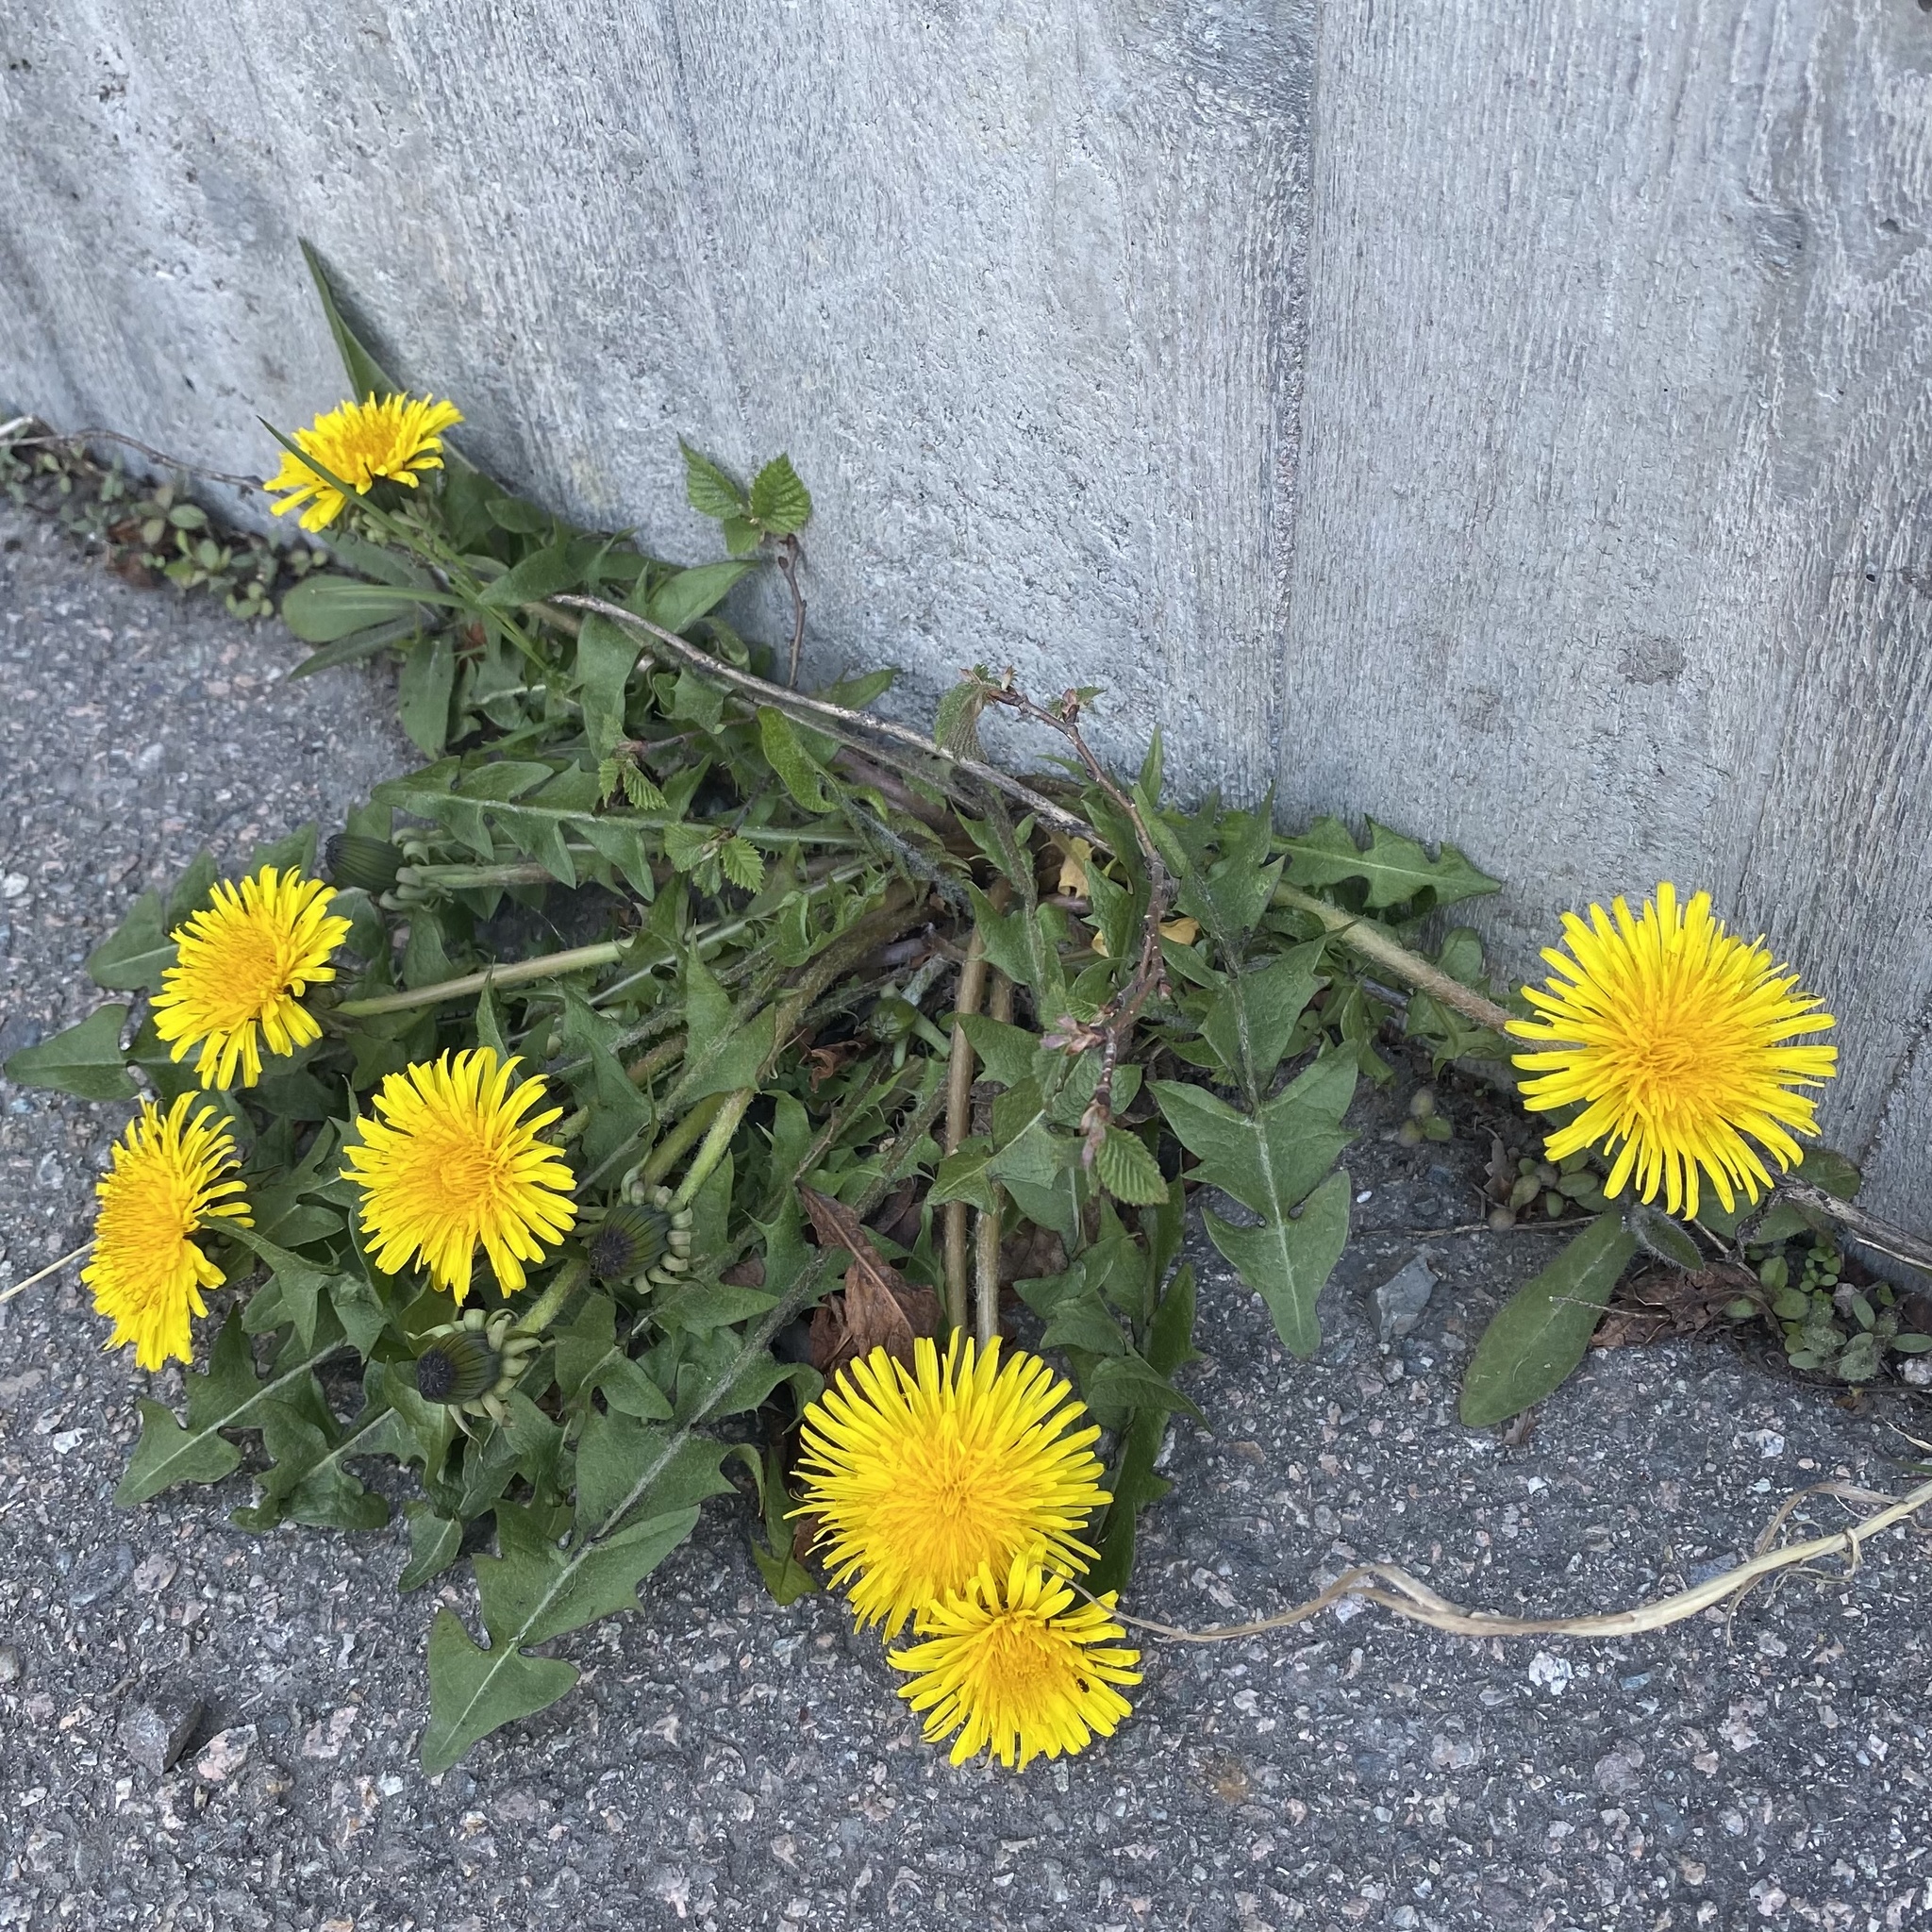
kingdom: Plantae
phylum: Tracheophyta
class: Magnoliopsida
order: Asterales
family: Asteraceae
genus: Taraxacum
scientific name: Taraxacum officinale
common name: Common dandelion
